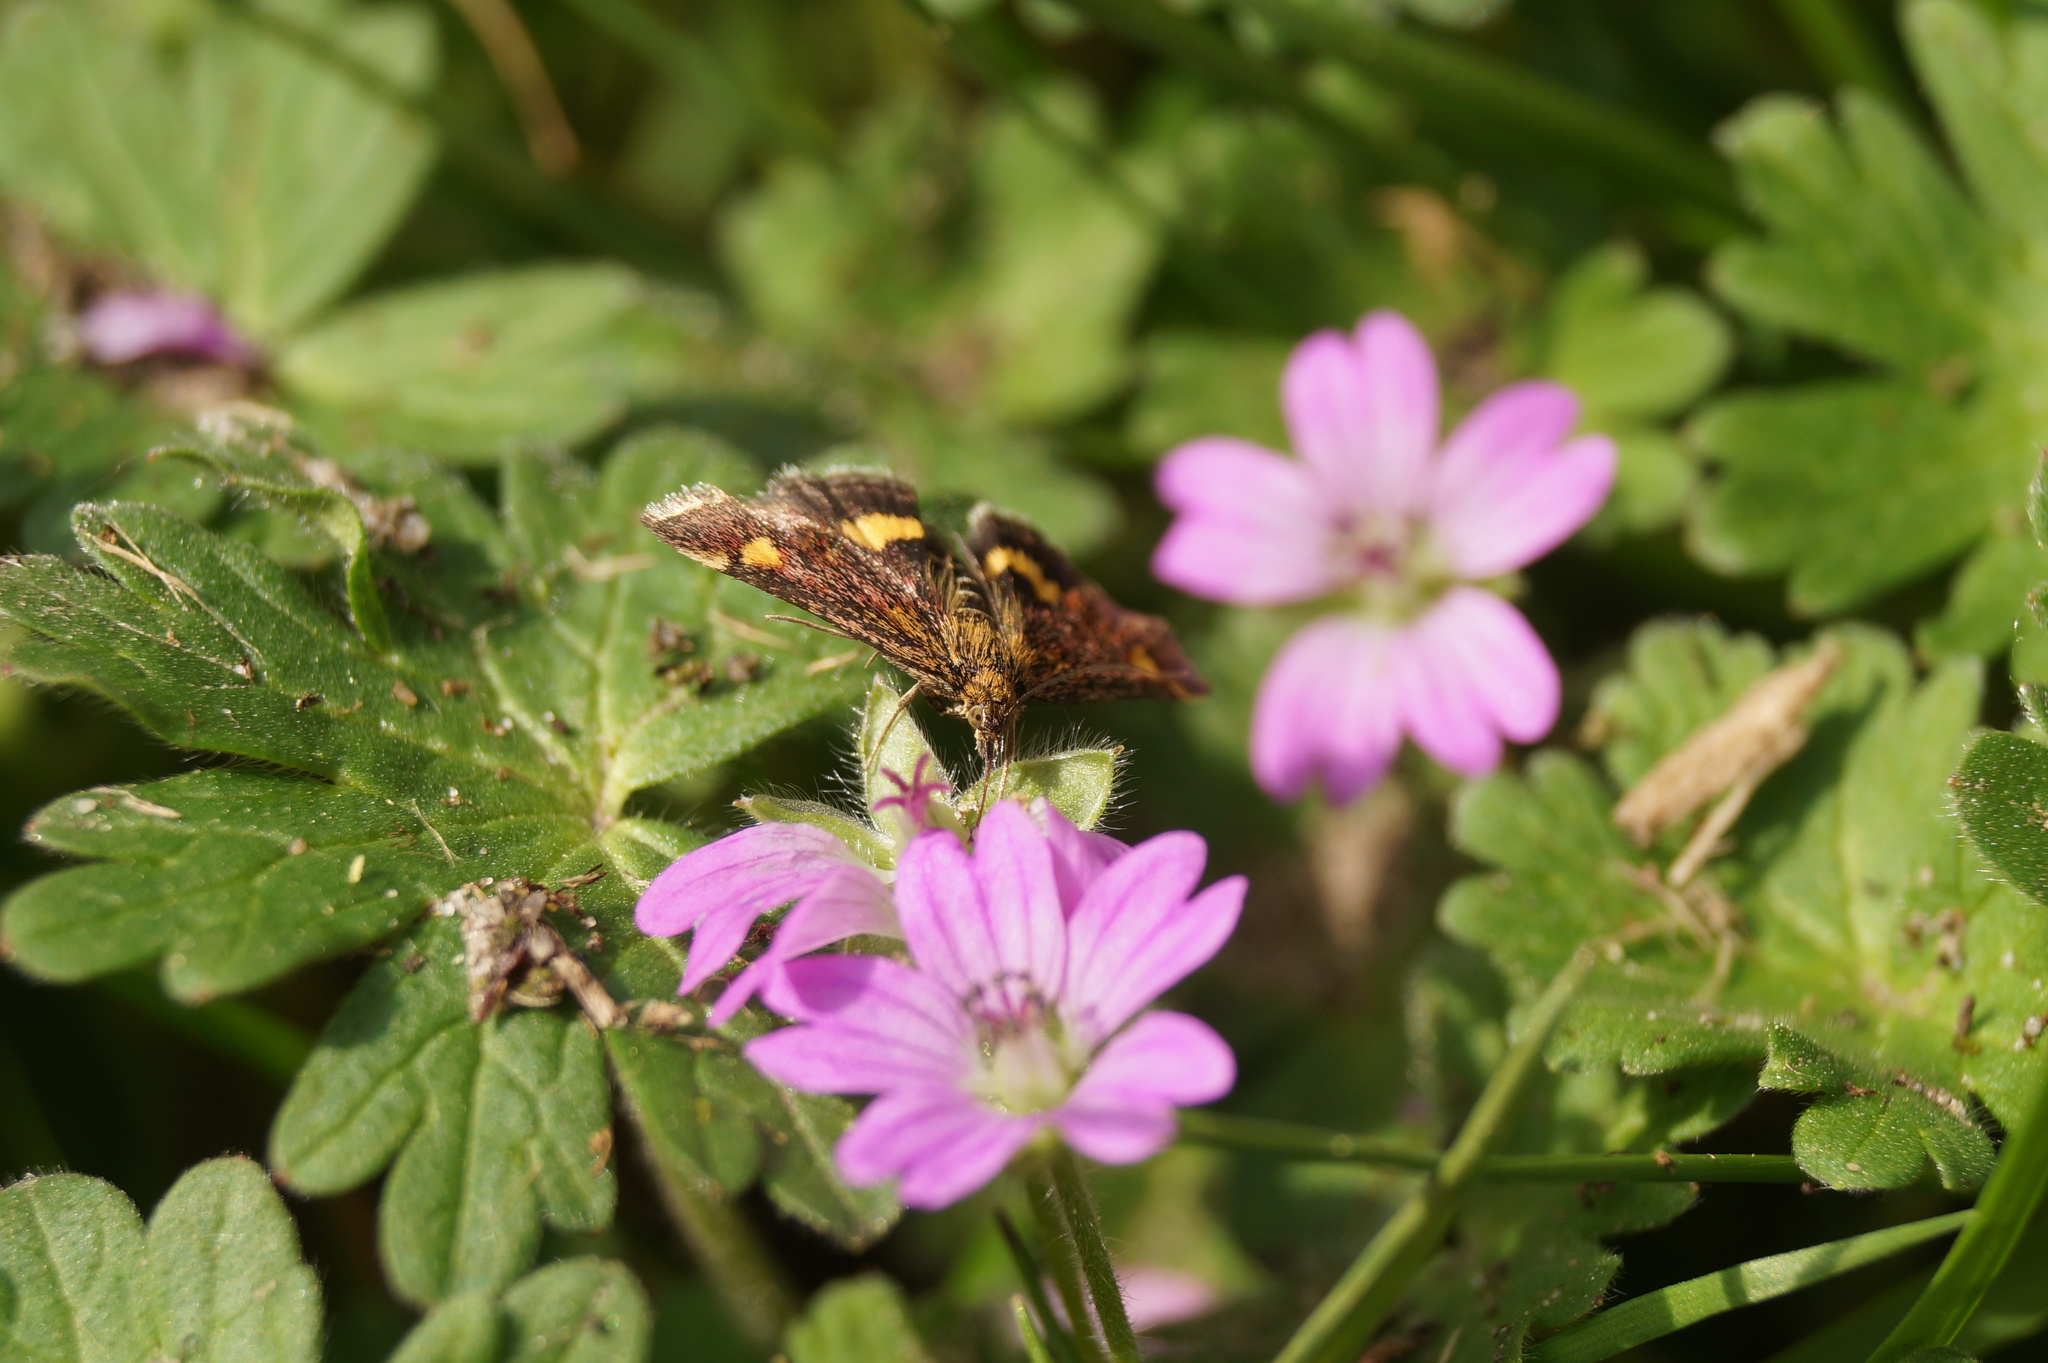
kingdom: Animalia
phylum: Arthropoda
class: Insecta
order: Lepidoptera
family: Crambidae
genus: Pyrausta
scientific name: Pyrausta aurata
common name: Small purple & gold
